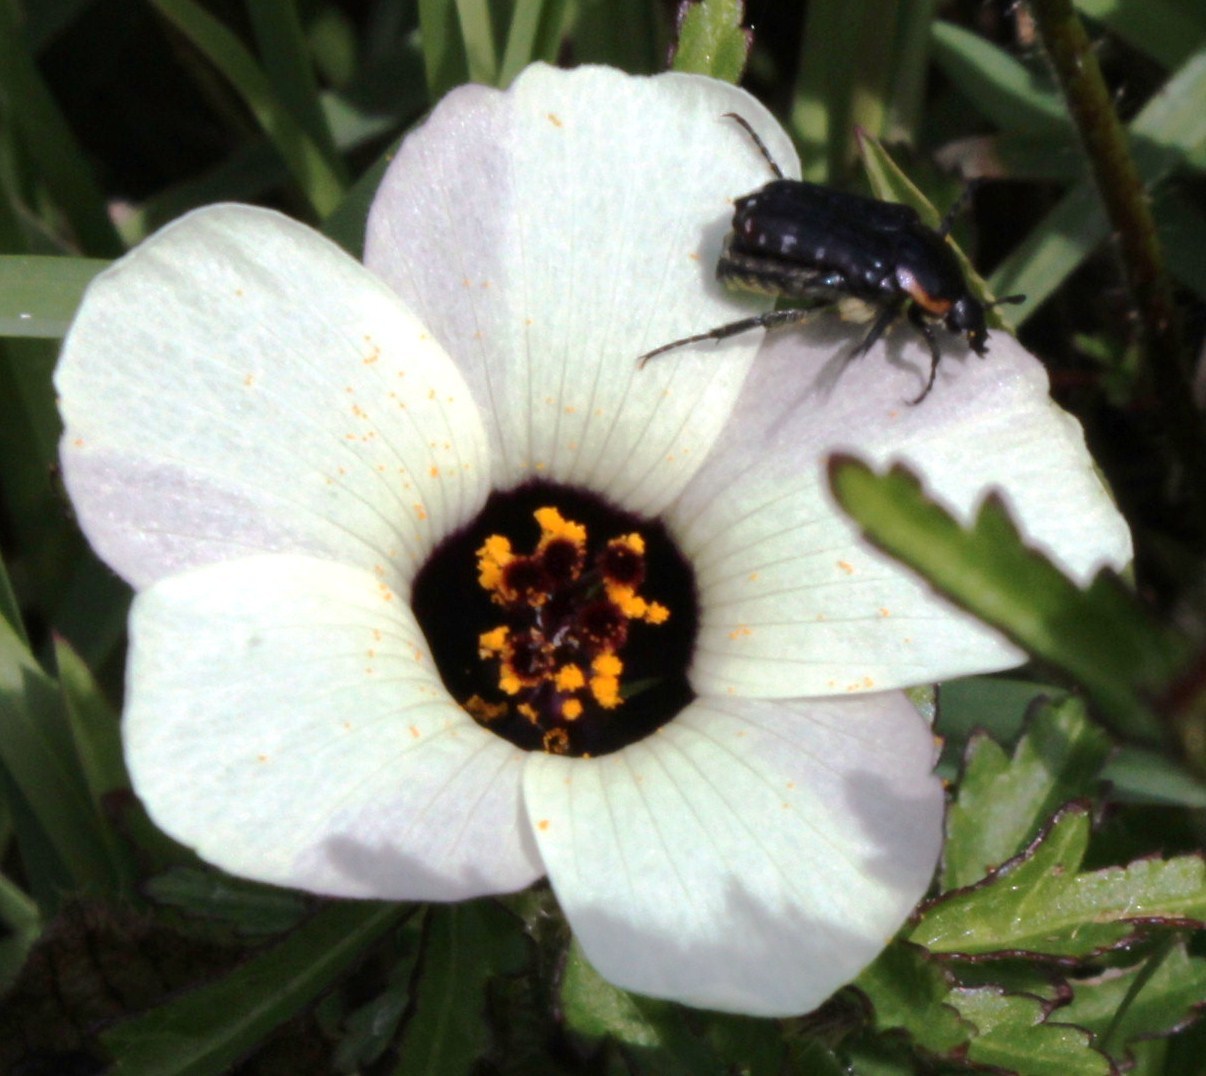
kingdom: Plantae
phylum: Tracheophyta
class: Magnoliopsida
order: Malvales
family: Malvaceae
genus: Hibiscus
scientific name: Hibiscus trionum
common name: Bladder ketmia
